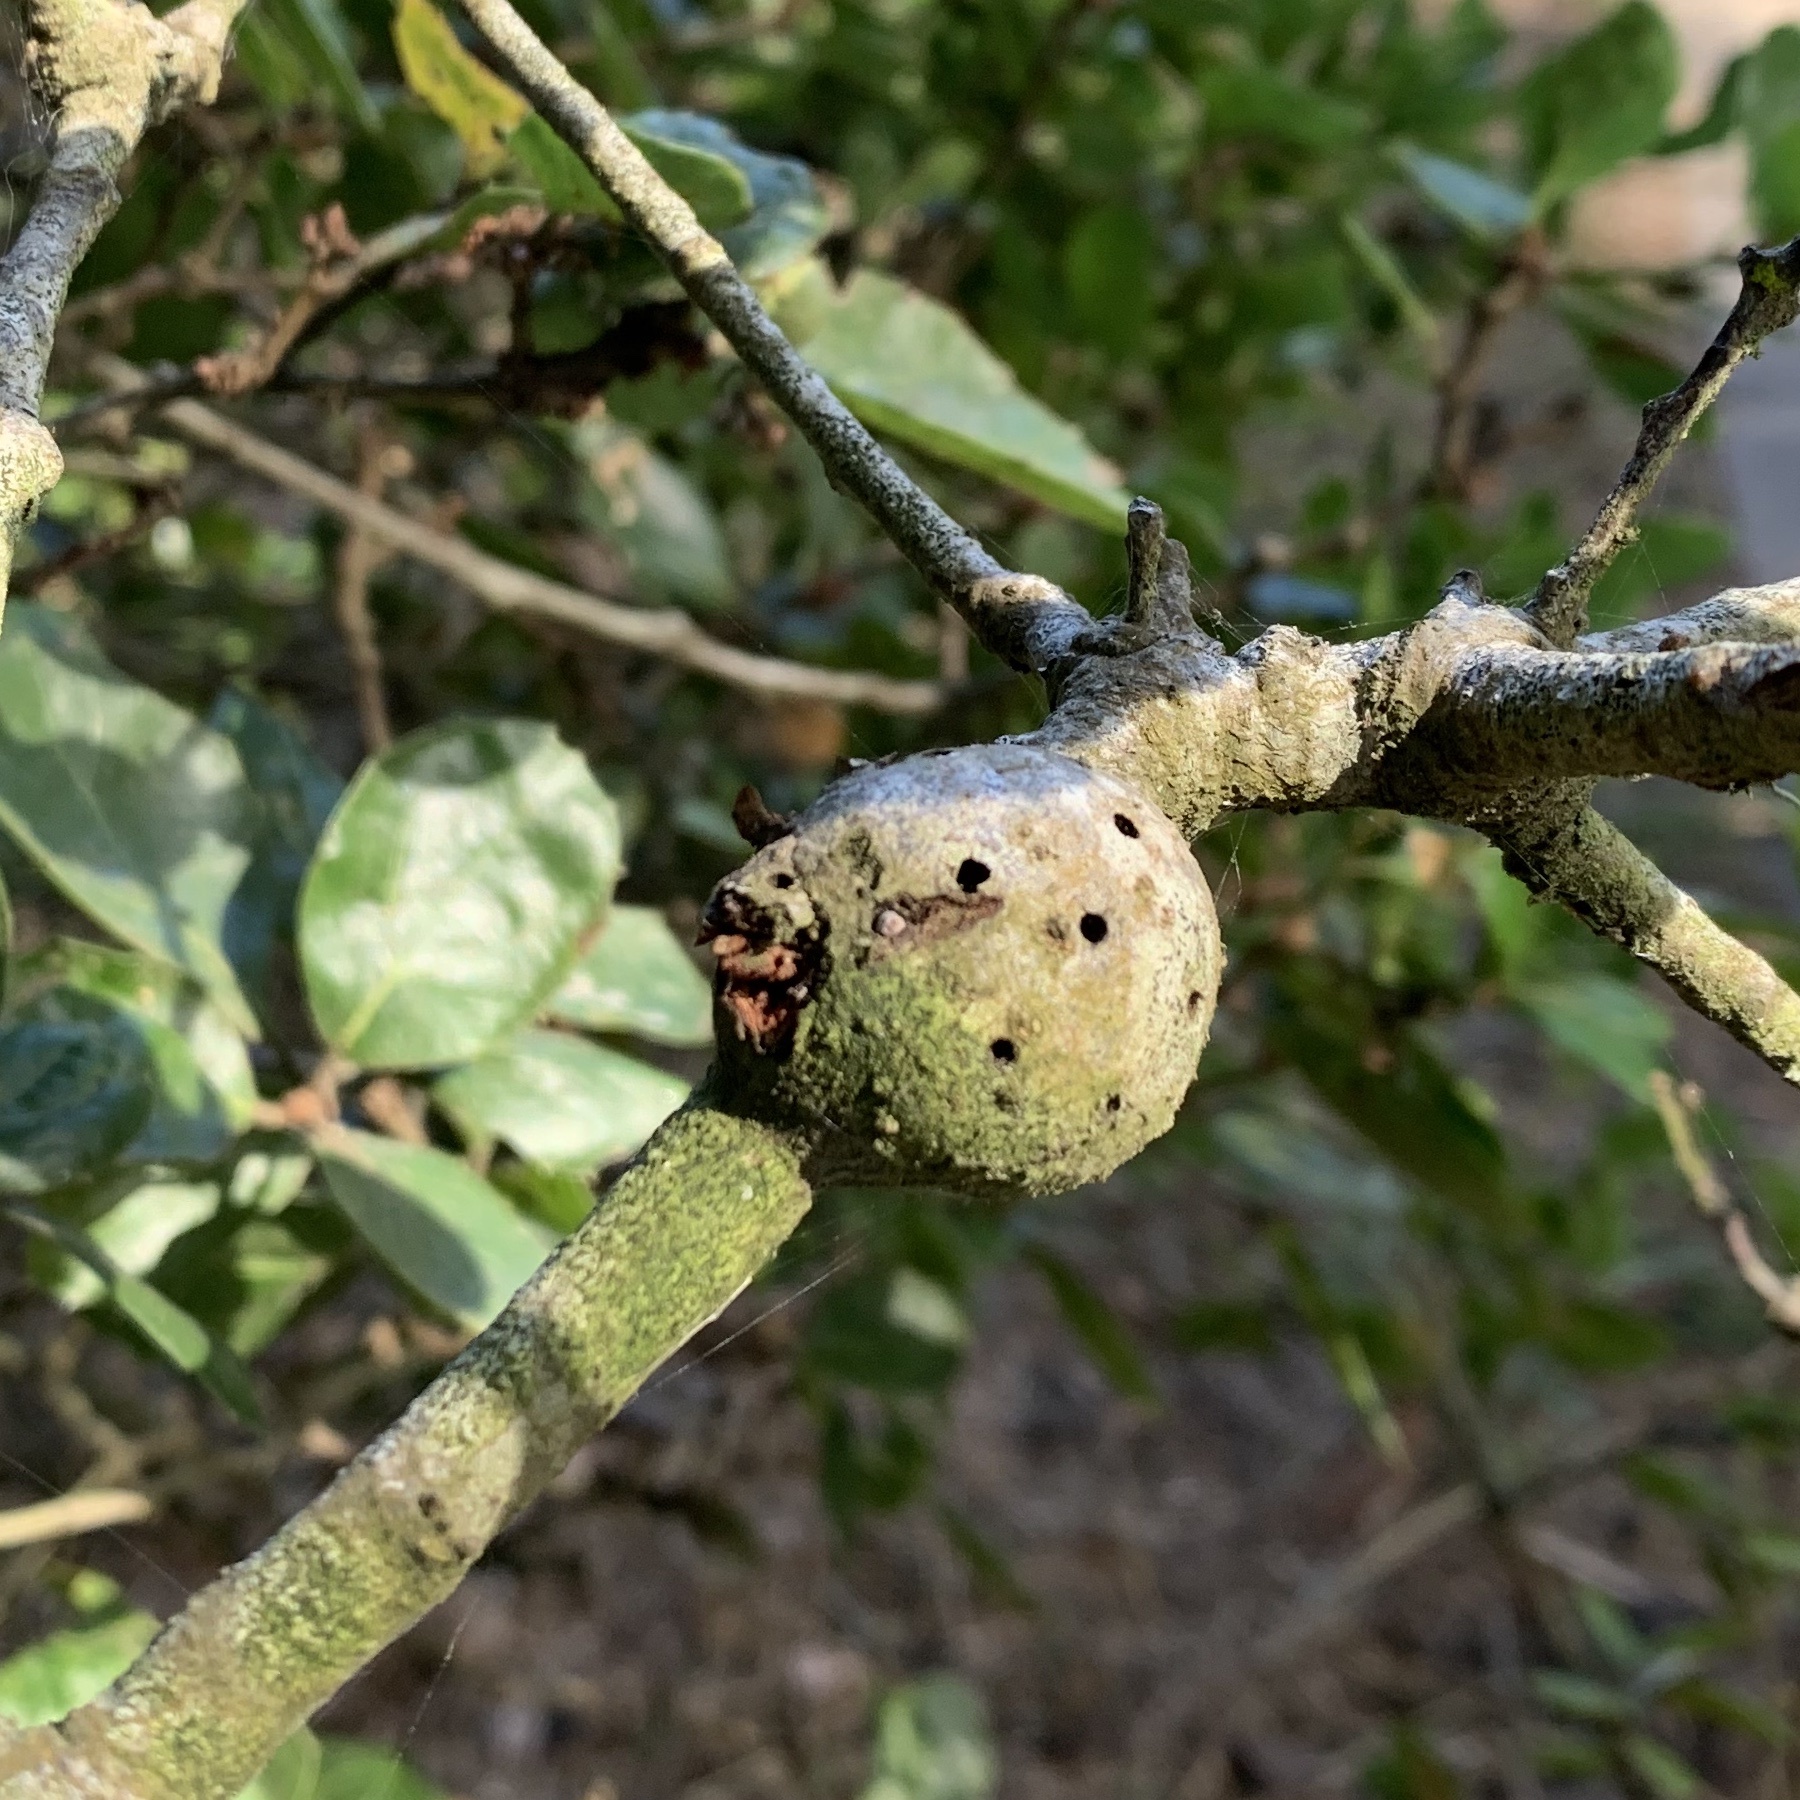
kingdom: Animalia
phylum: Arthropoda
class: Insecta
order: Hymenoptera
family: Cynipidae
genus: Callirhytis
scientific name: Callirhytis
